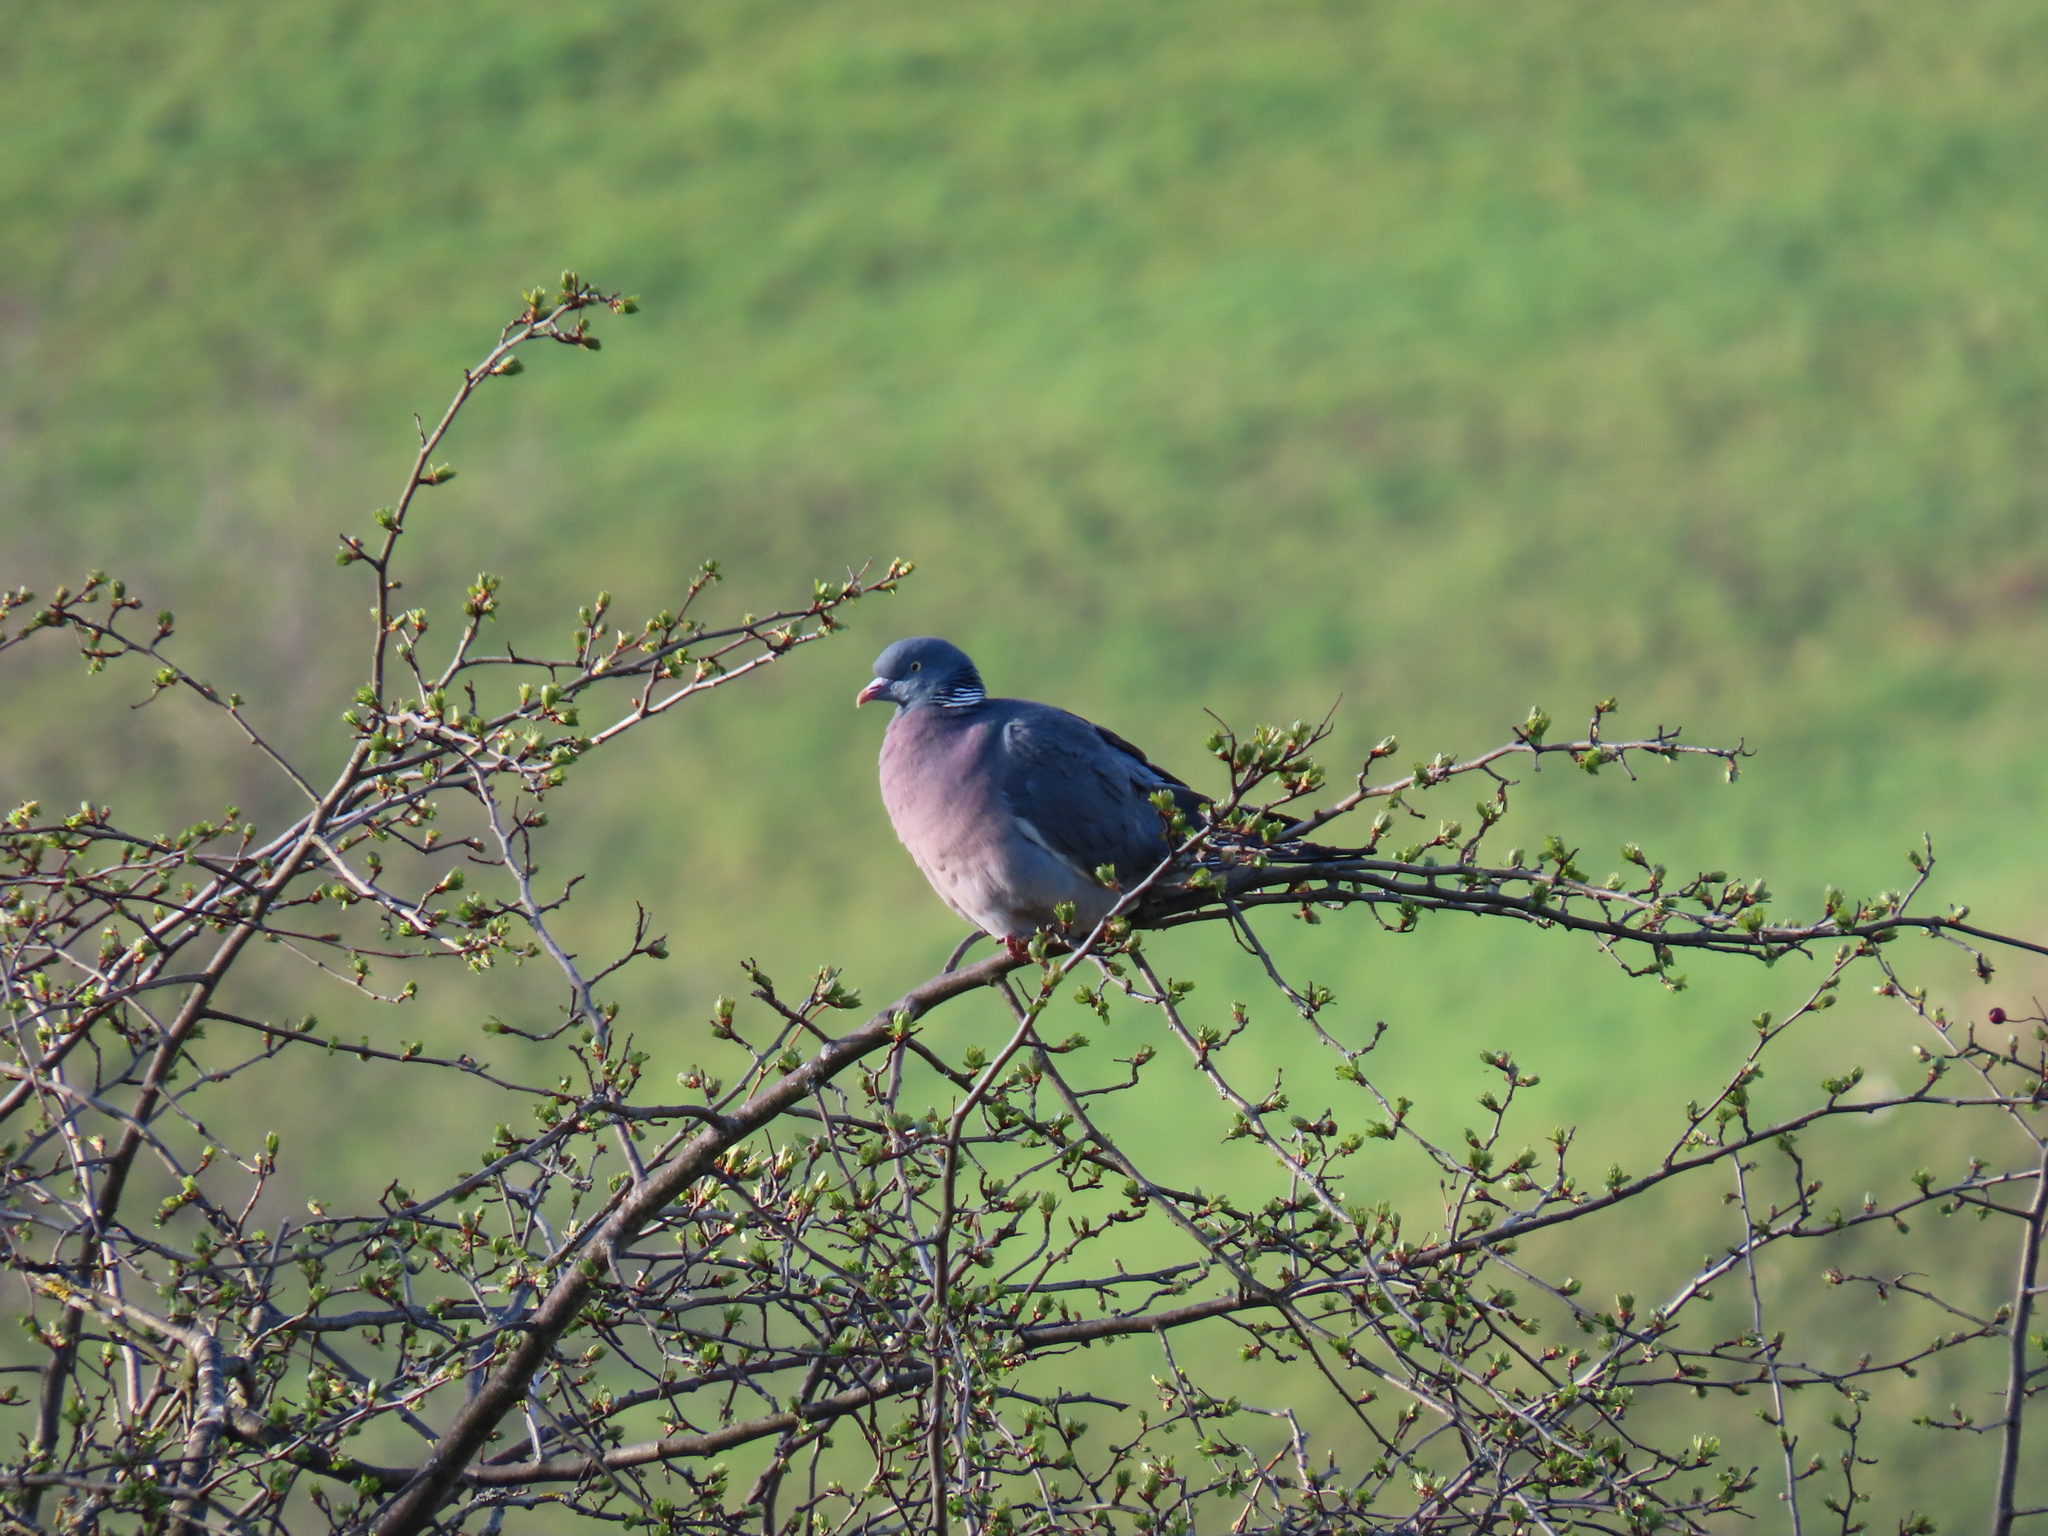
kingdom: Animalia
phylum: Chordata
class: Aves
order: Columbiformes
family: Columbidae
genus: Columba
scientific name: Columba palumbus
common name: Common wood pigeon
